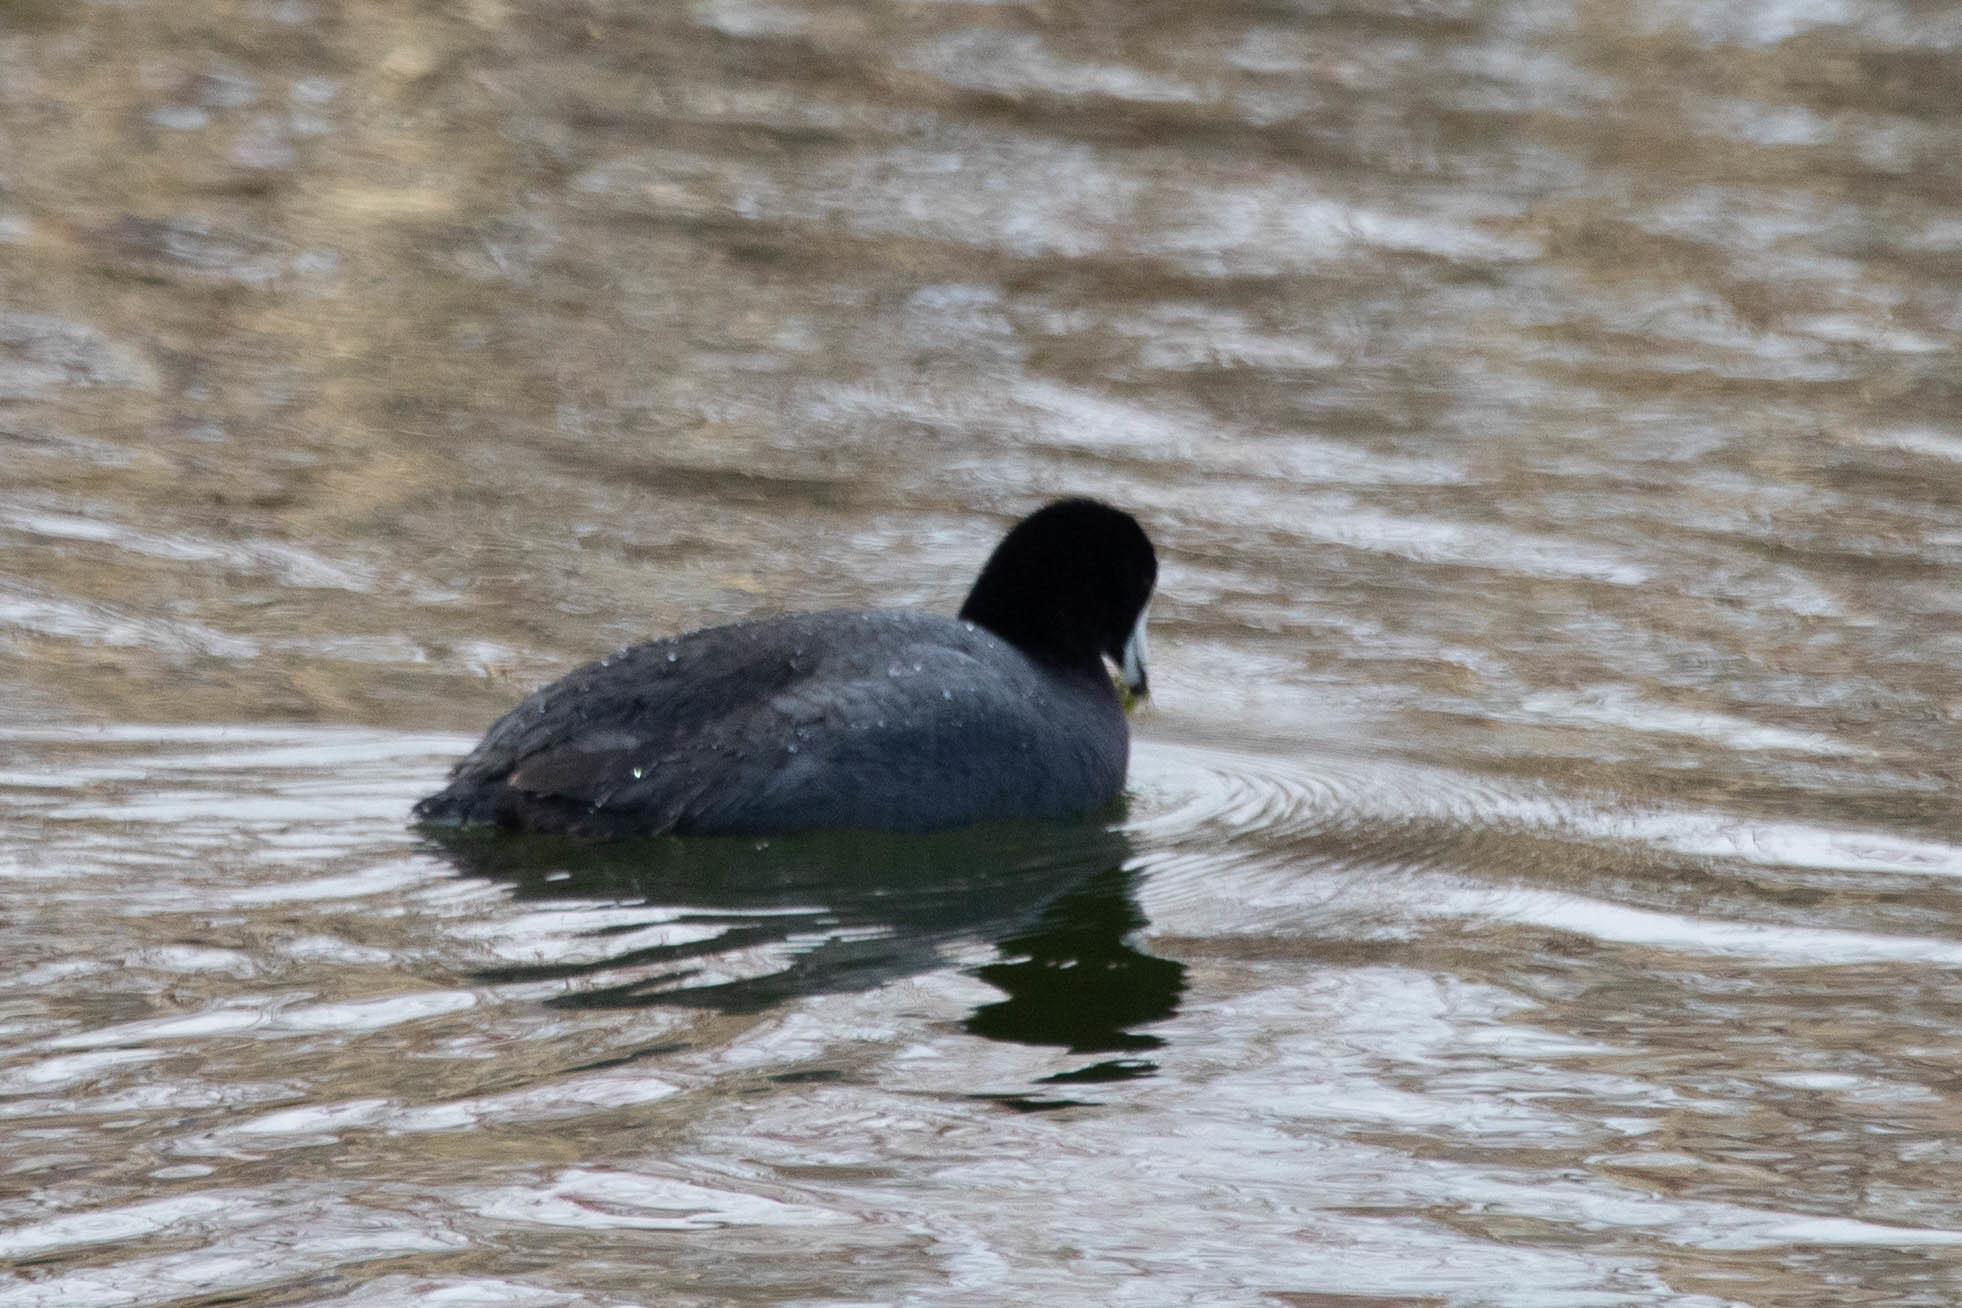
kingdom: Animalia
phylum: Chordata
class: Aves
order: Gruiformes
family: Rallidae
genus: Fulica
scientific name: Fulica americana
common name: American coot
